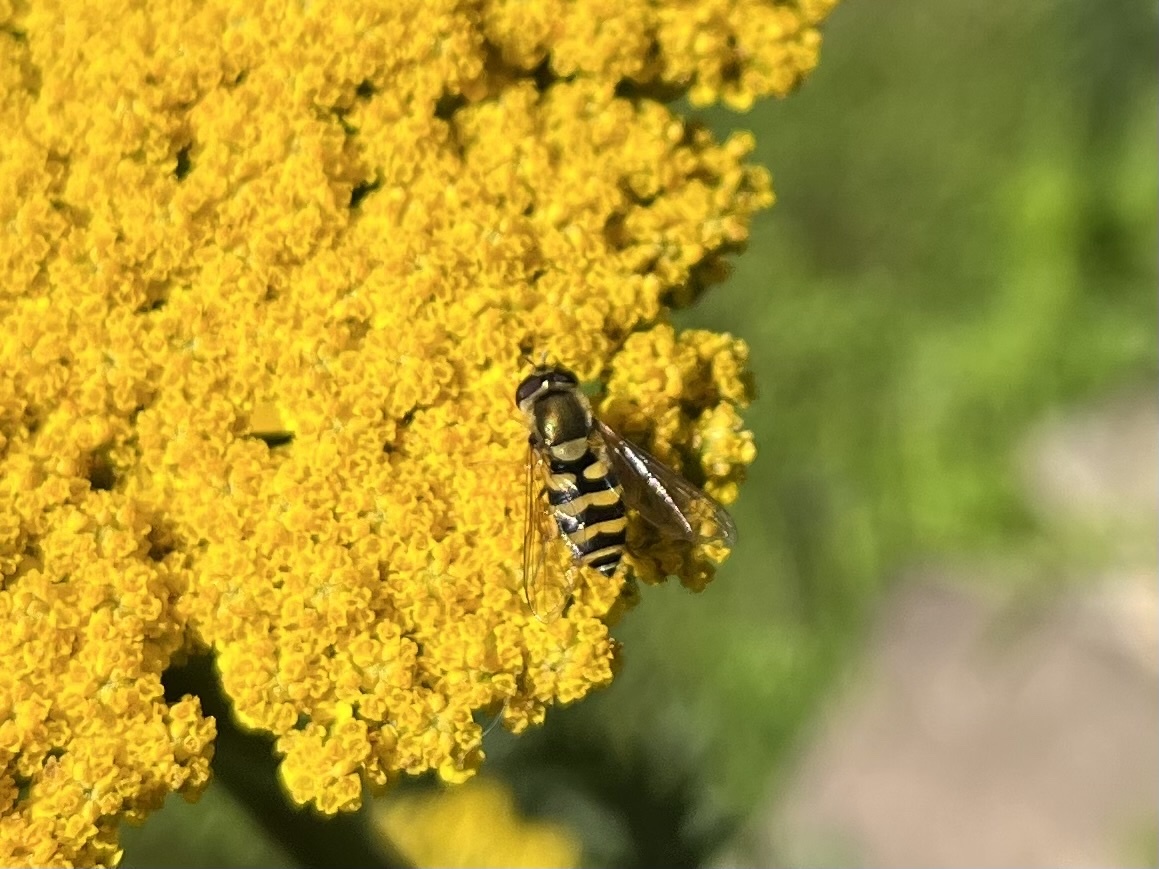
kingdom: Animalia
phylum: Arthropoda
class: Insecta
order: Diptera
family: Syrphidae
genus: Syrphus
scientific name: Syrphus
